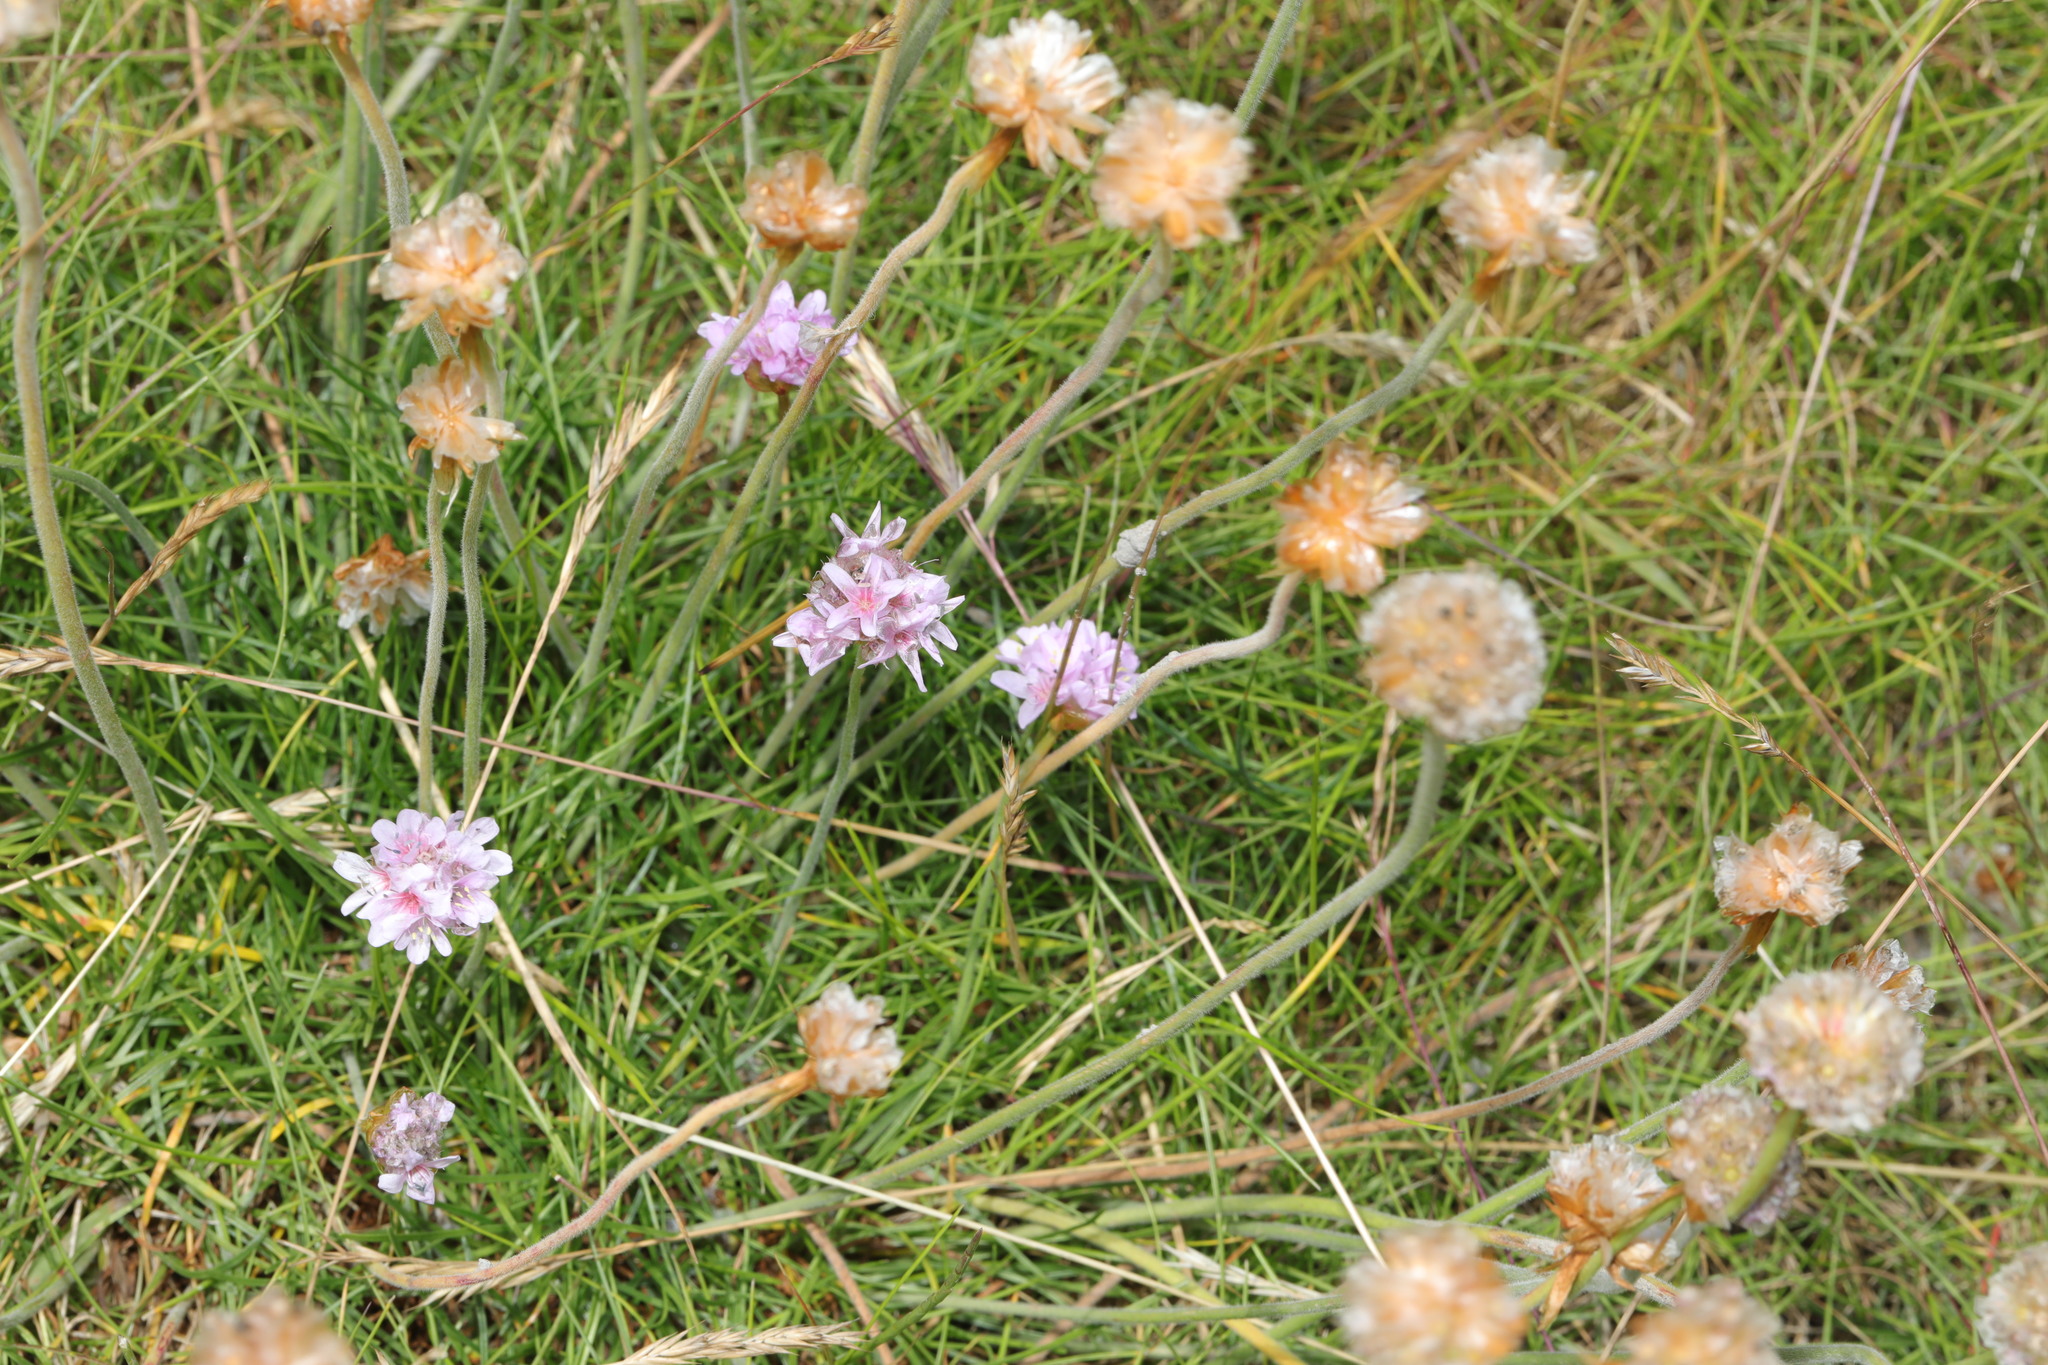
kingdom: Plantae
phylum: Tracheophyta
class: Magnoliopsida
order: Caryophyllales
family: Plumbaginaceae
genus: Armeria
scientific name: Armeria maritima
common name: Thrift
